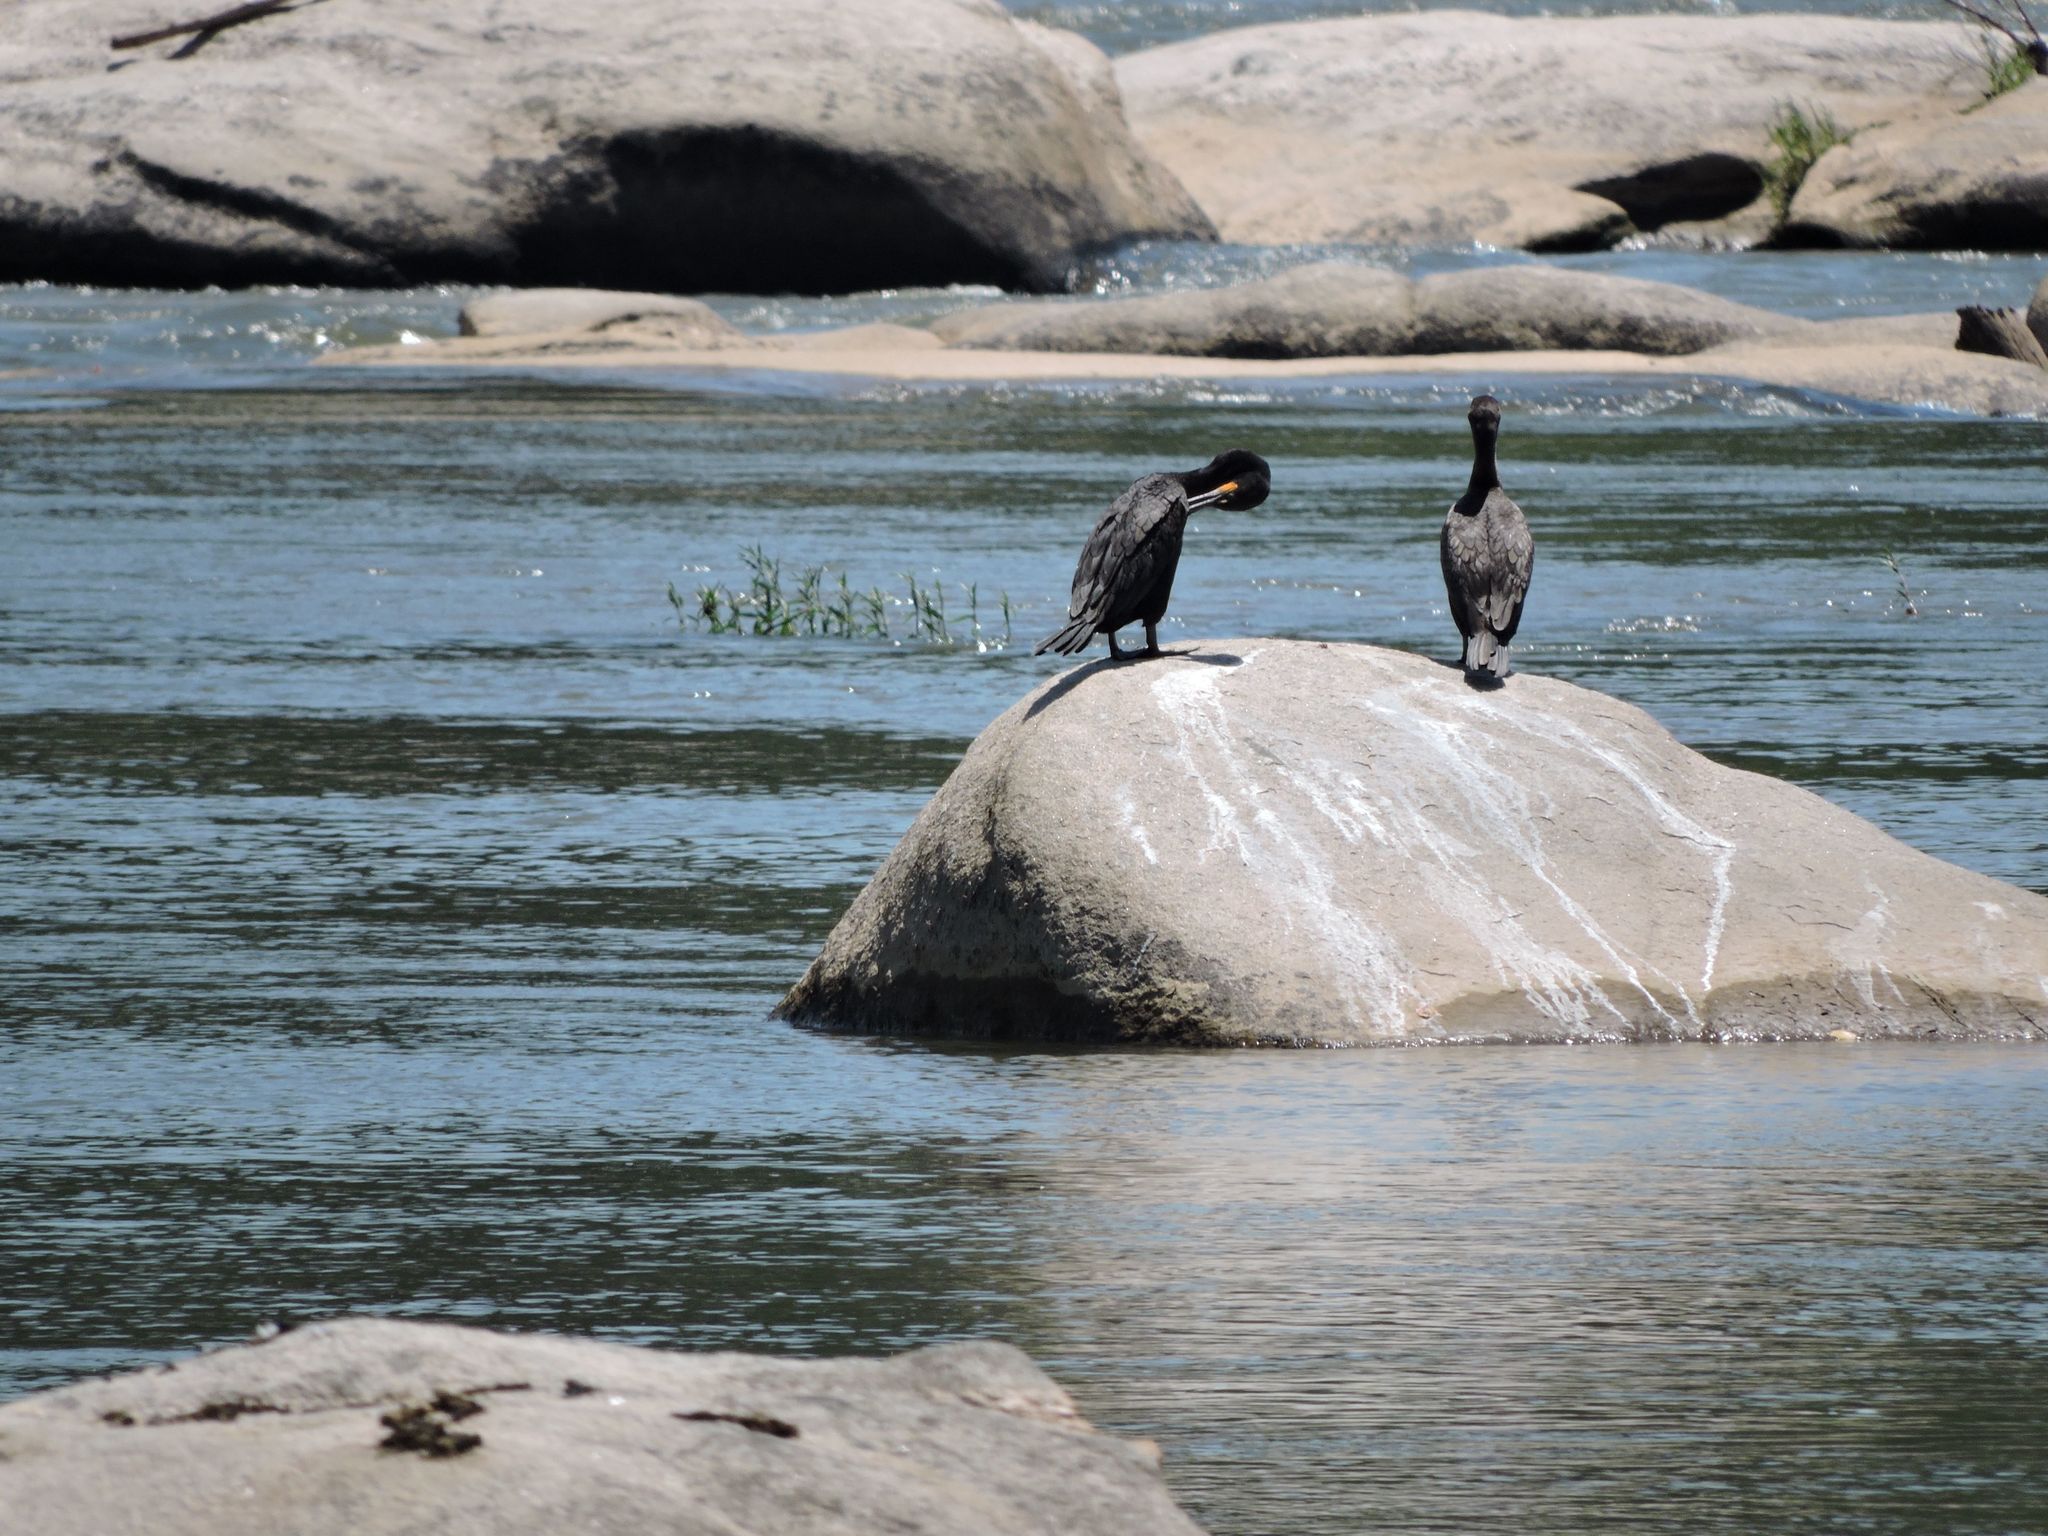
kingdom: Animalia
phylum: Chordata
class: Aves
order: Suliformes
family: Phalacrocoracidae
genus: Phalacrocorax
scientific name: Phalacrocorax auritus
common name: Double-crested cormorant
